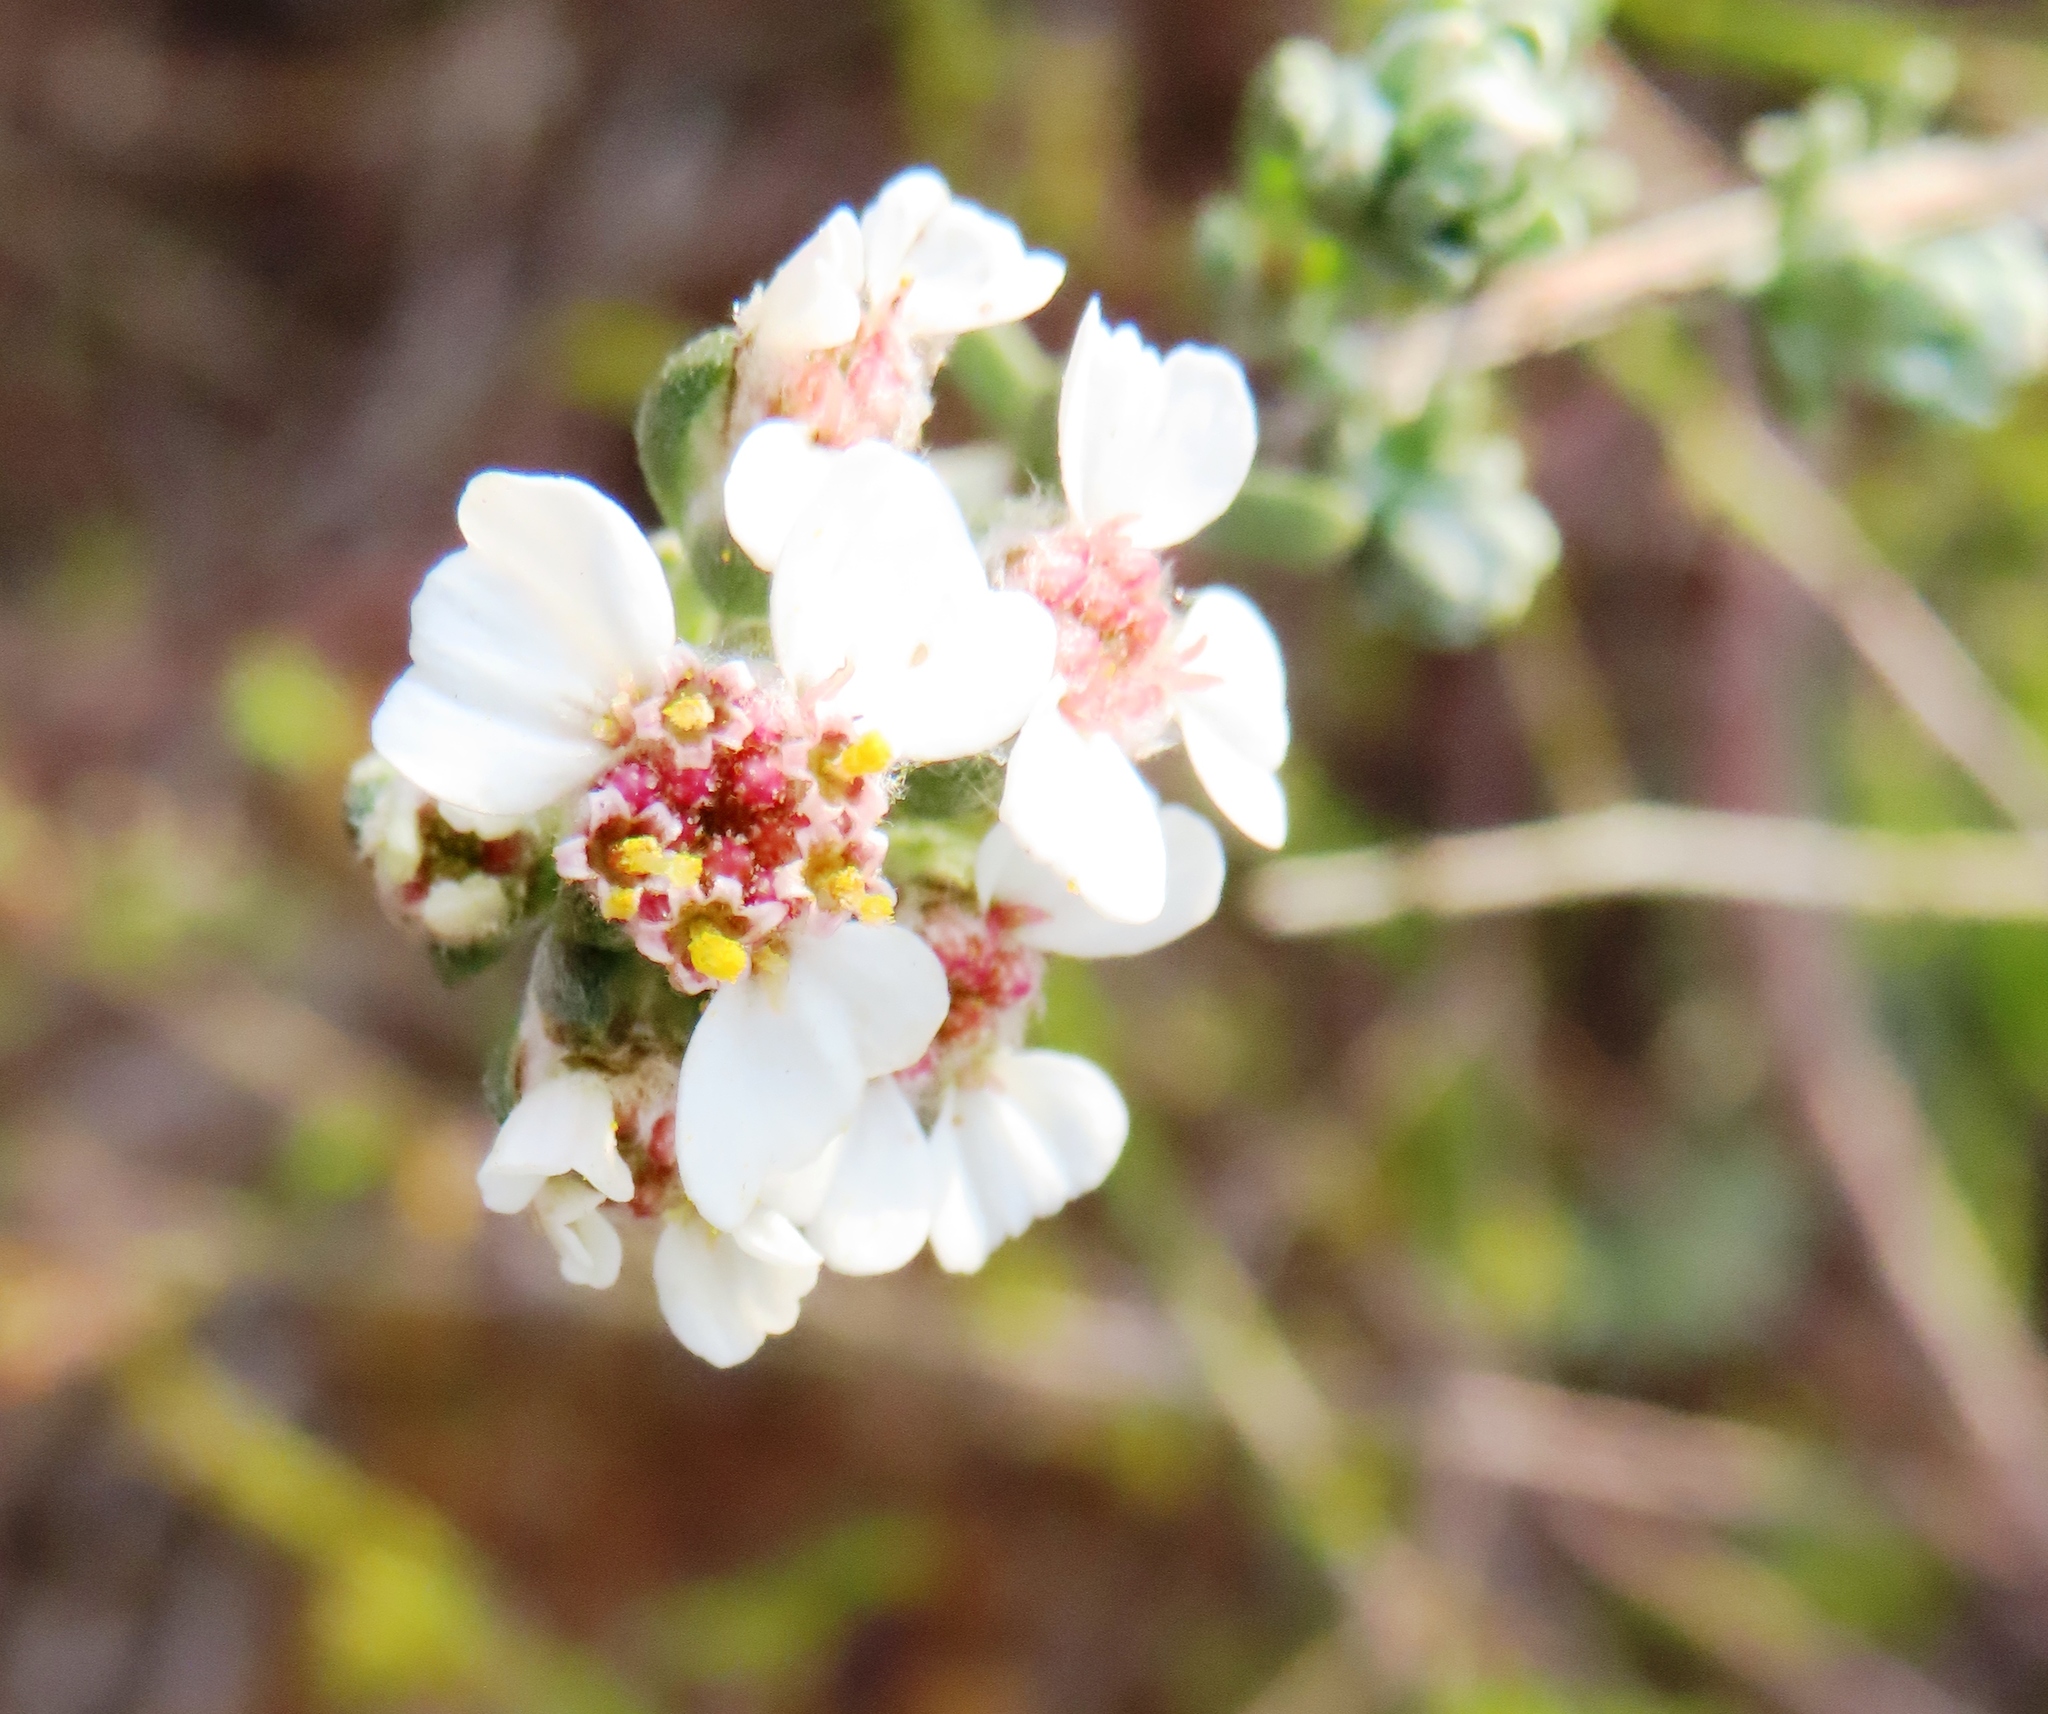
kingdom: Plantae
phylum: Tracheophyta
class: Magnoliopsida
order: Asterales
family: Asteraceae
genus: Eriocephalus
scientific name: Eriocephalus africanus
